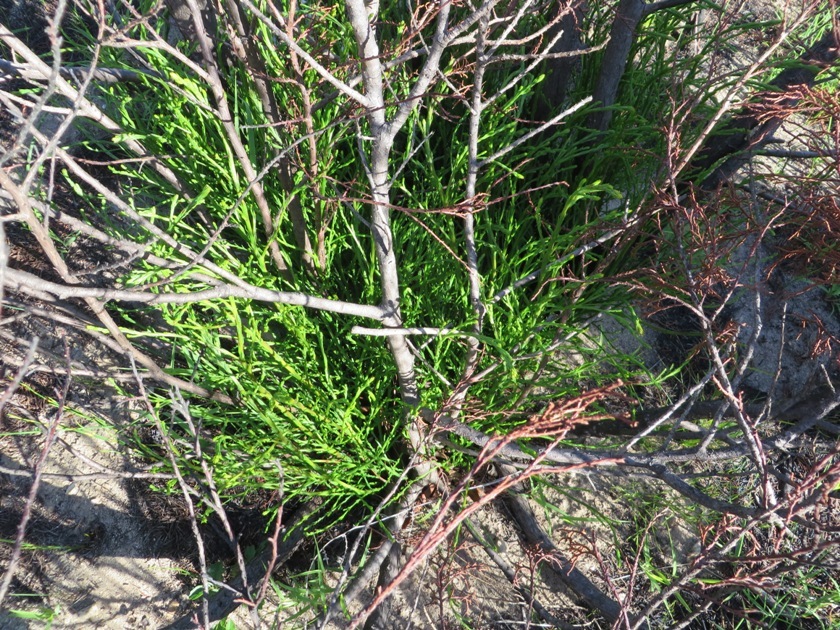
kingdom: Plantae
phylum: Tracheophyta
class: Pinopsida
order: Pinales
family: Cupressaceae
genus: Widdringtonia
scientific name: Widdringtonia nodiflora
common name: Cape cypress
